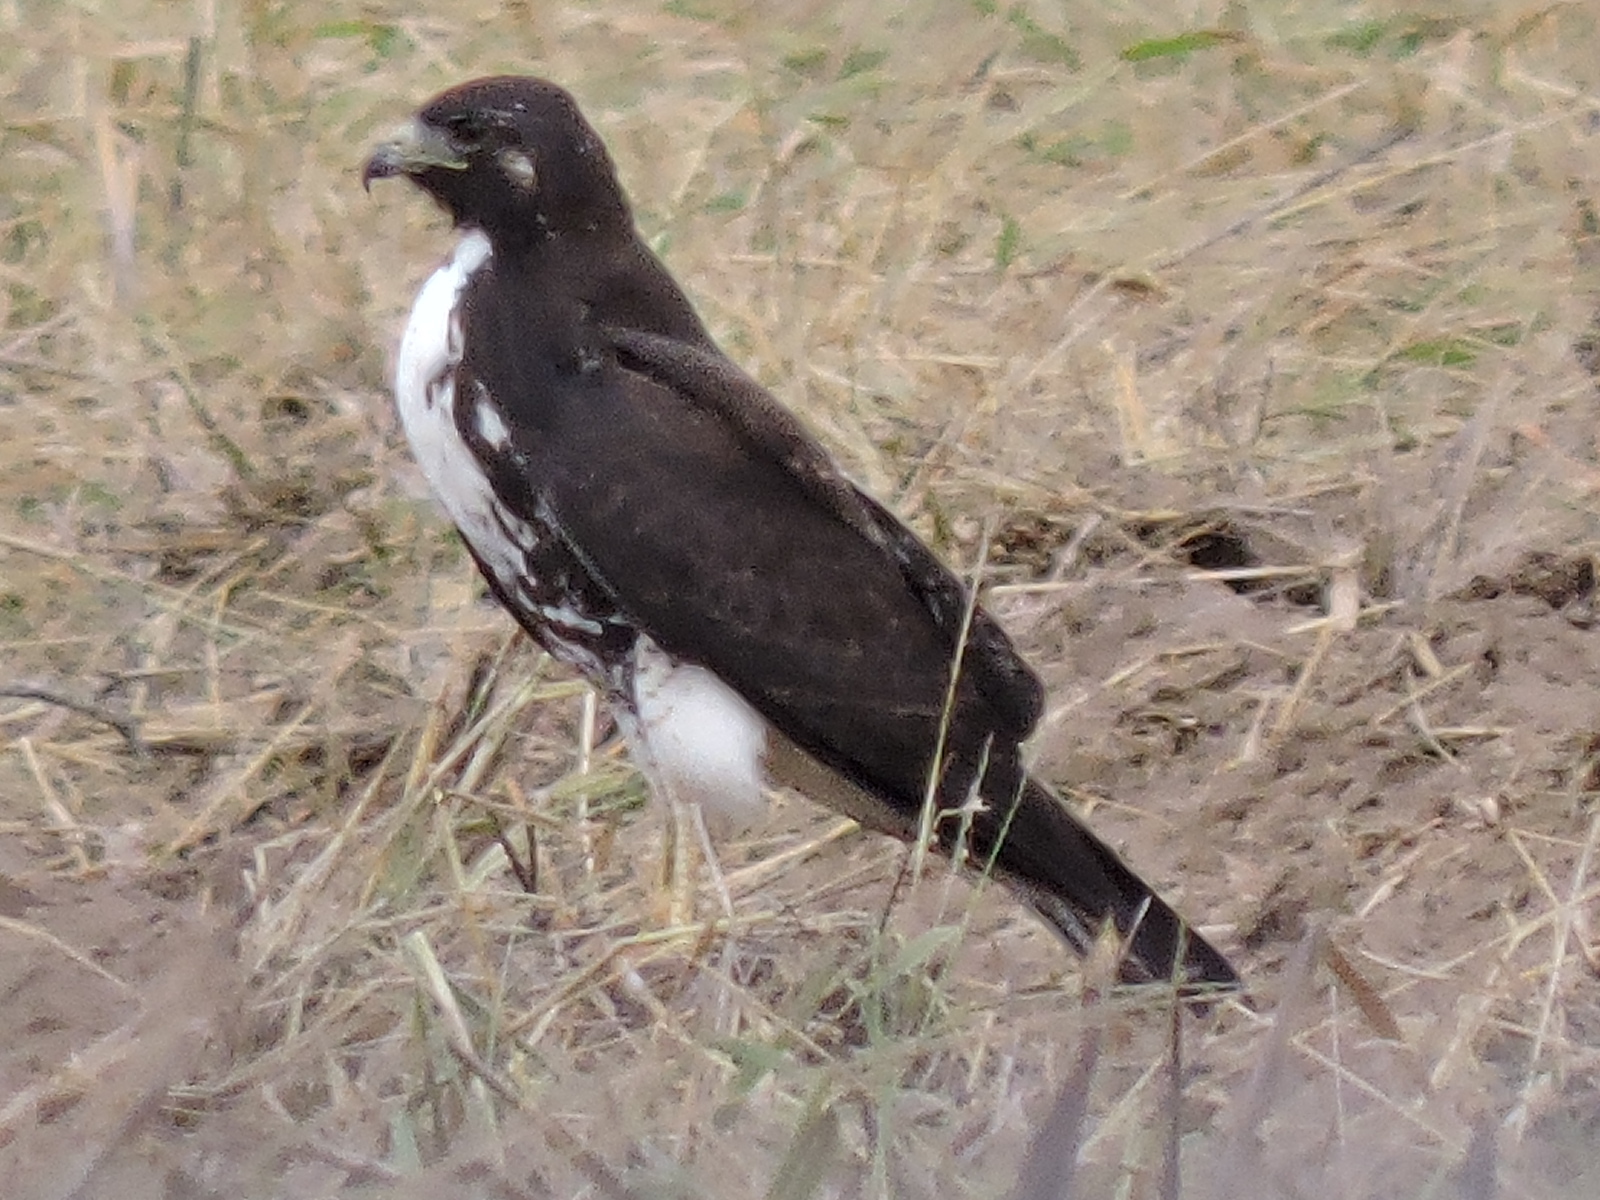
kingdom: Animalia
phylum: Chordata
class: Aves
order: Accipitriformes
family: Accipitridae
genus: Buteo
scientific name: Buteo albicaudatus
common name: White-tailed hawk
